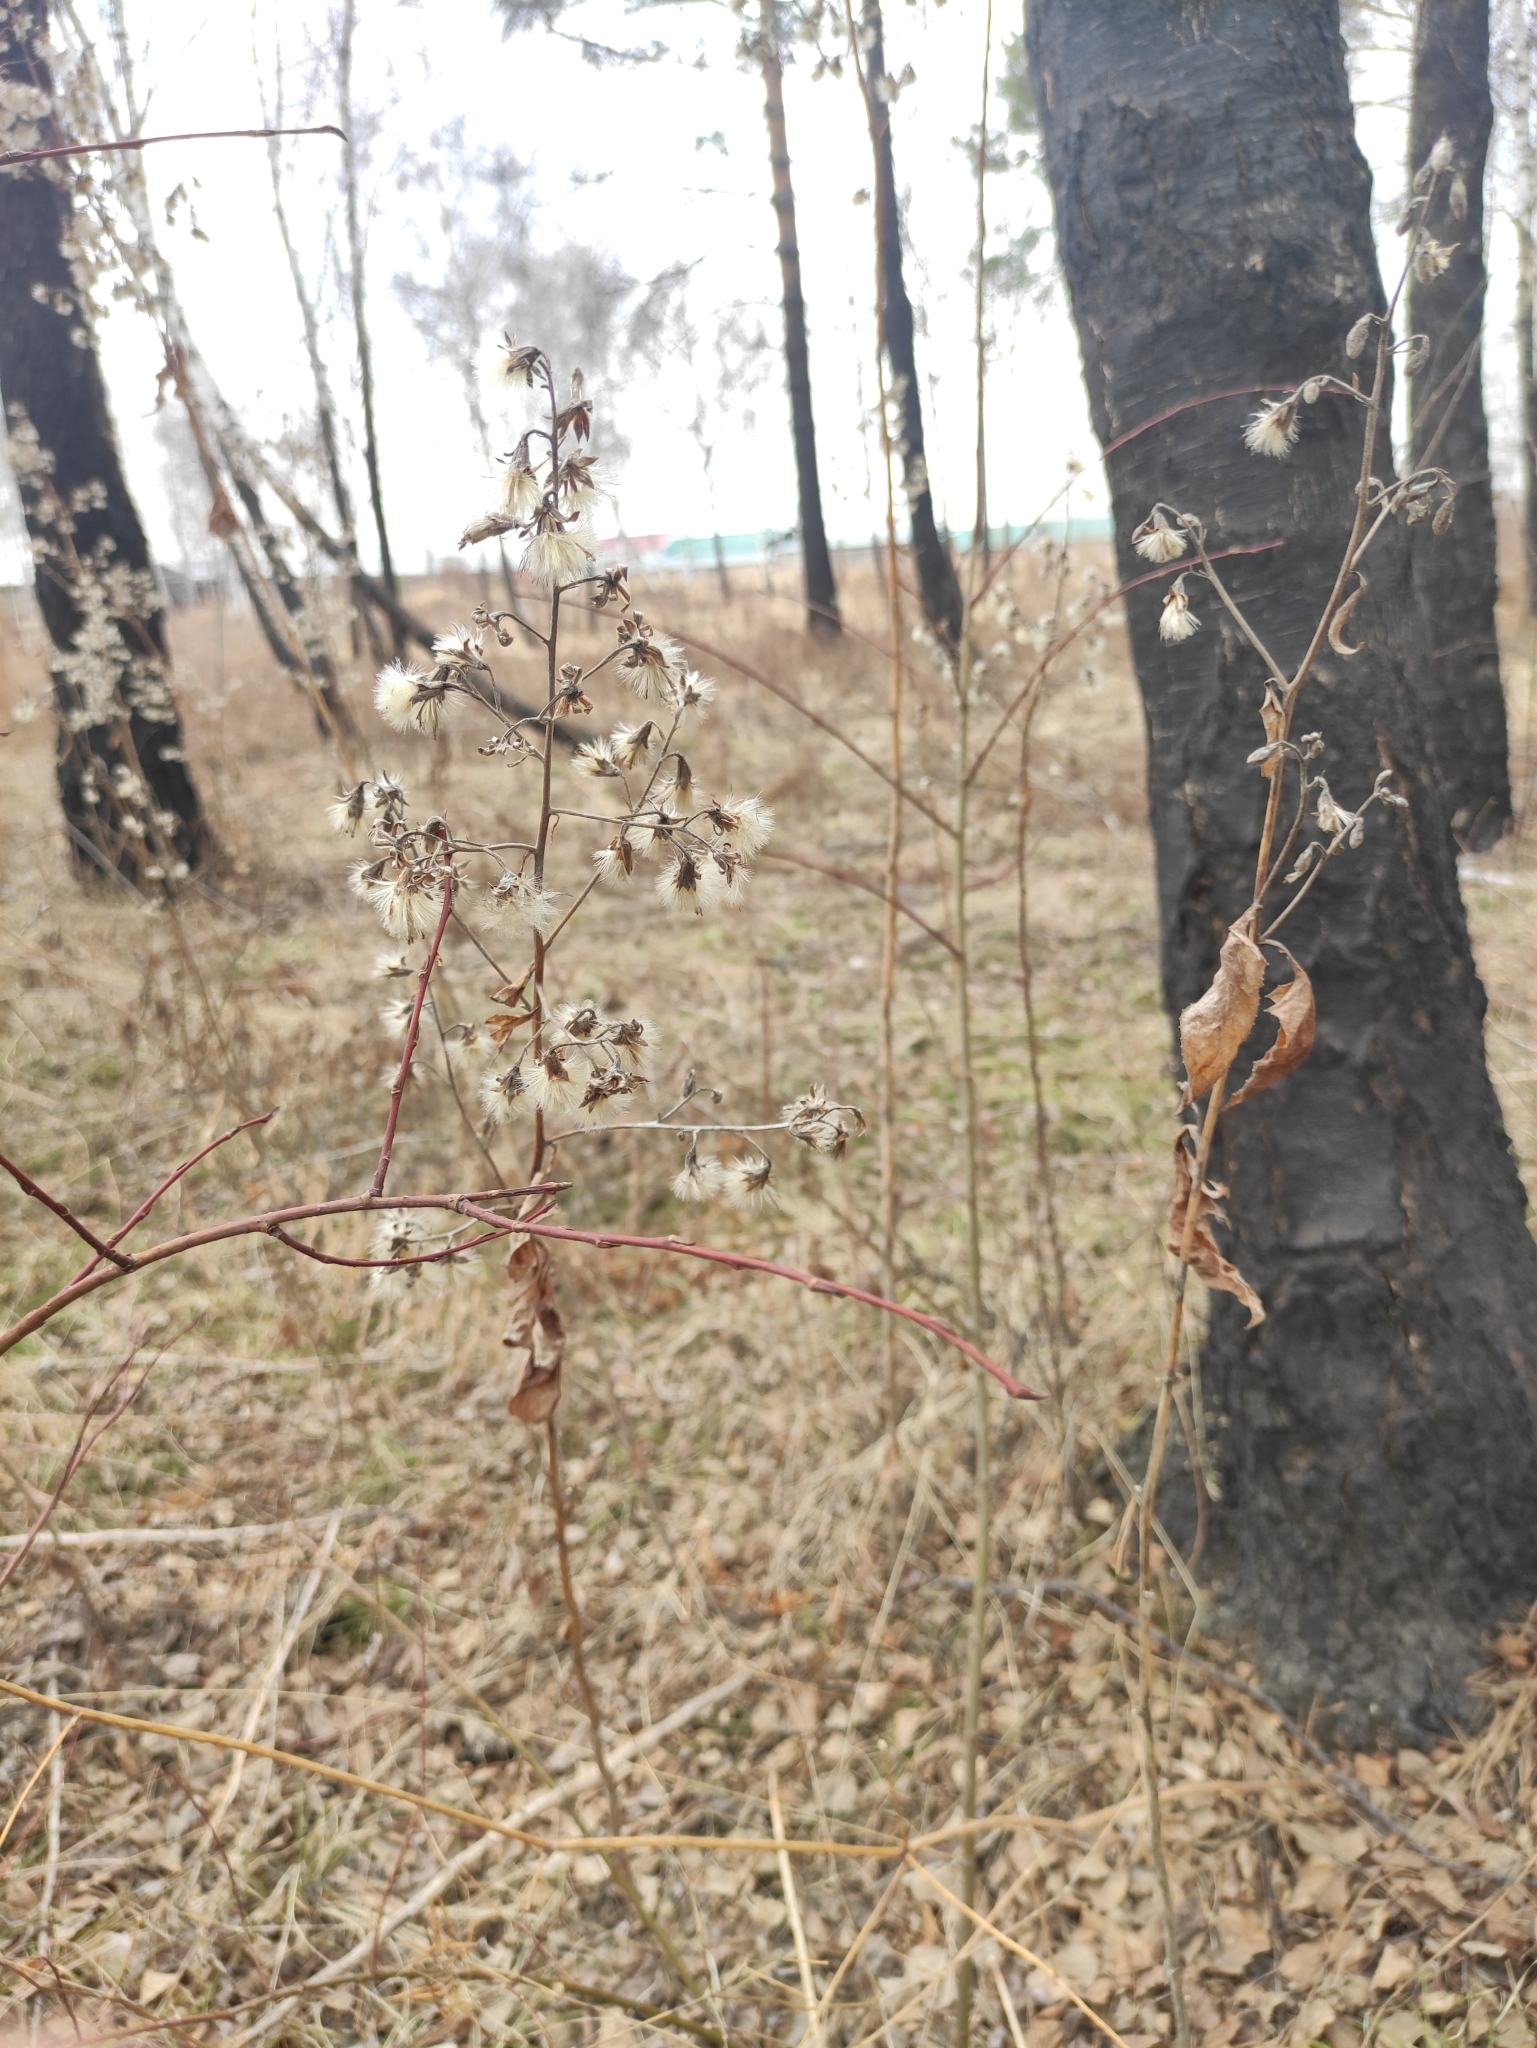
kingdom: Plantae
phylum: Tracheophyta
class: Magnoliopsida
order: Asterales
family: Asteraceae
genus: Parasenecio
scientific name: Parasenecio hastatus
